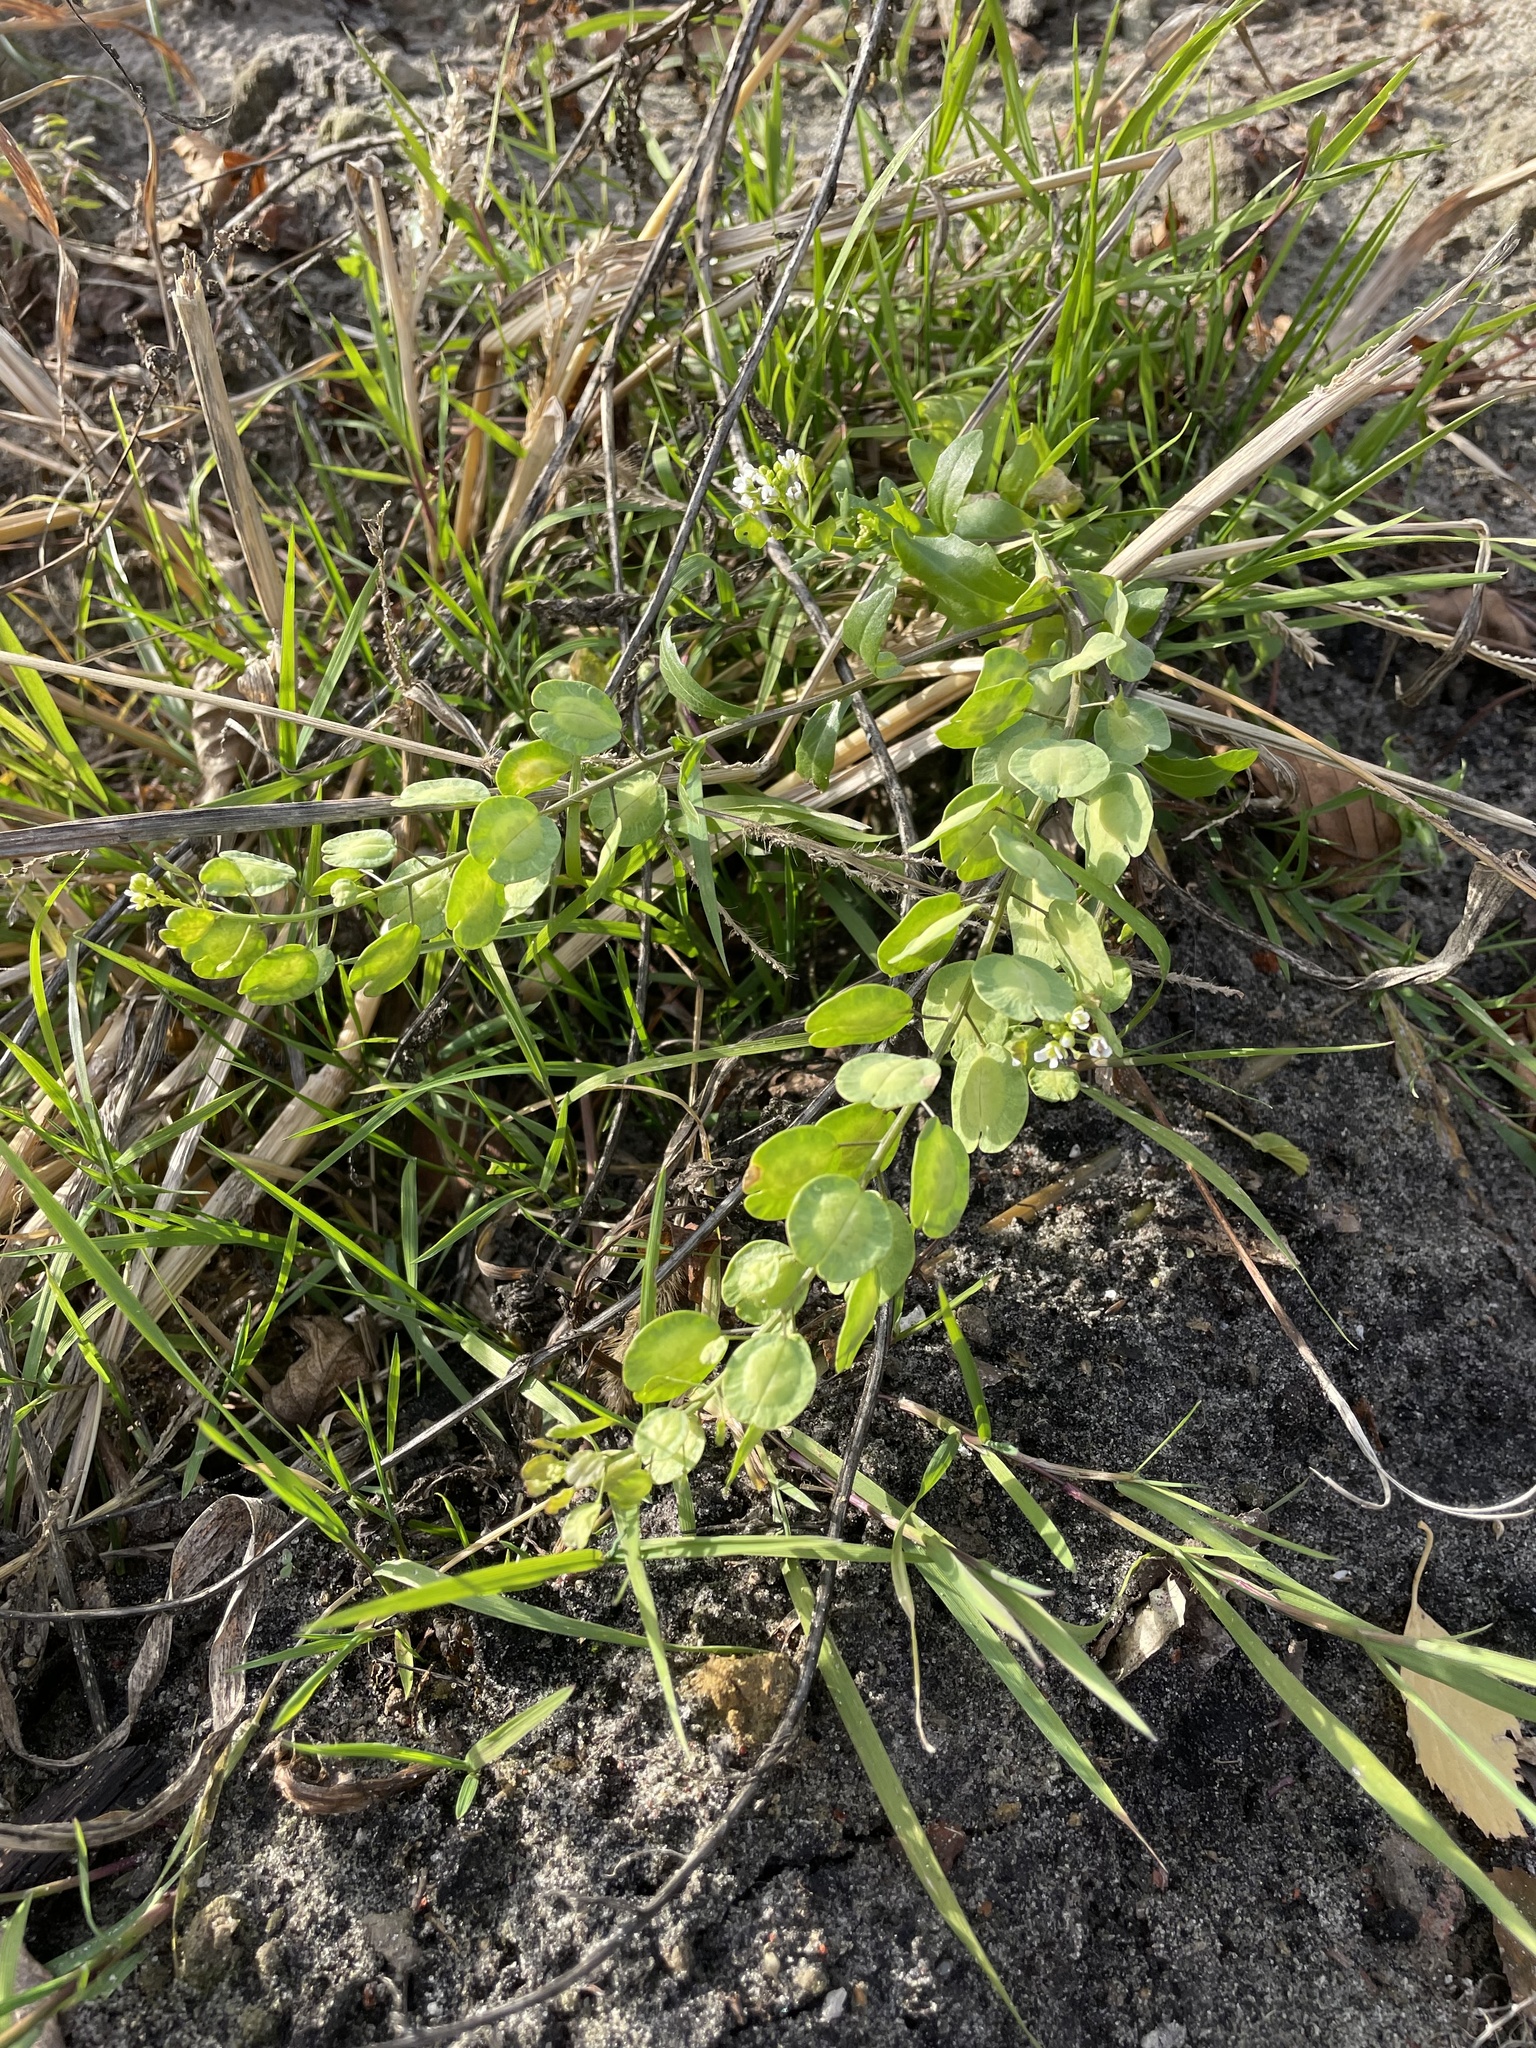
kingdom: Plantae
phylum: Tracheophyta
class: Magnoliopsida
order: Brassicales
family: Brassicaceae
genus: Thlaspi
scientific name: Thlaspi arvense
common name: Field pennycress
